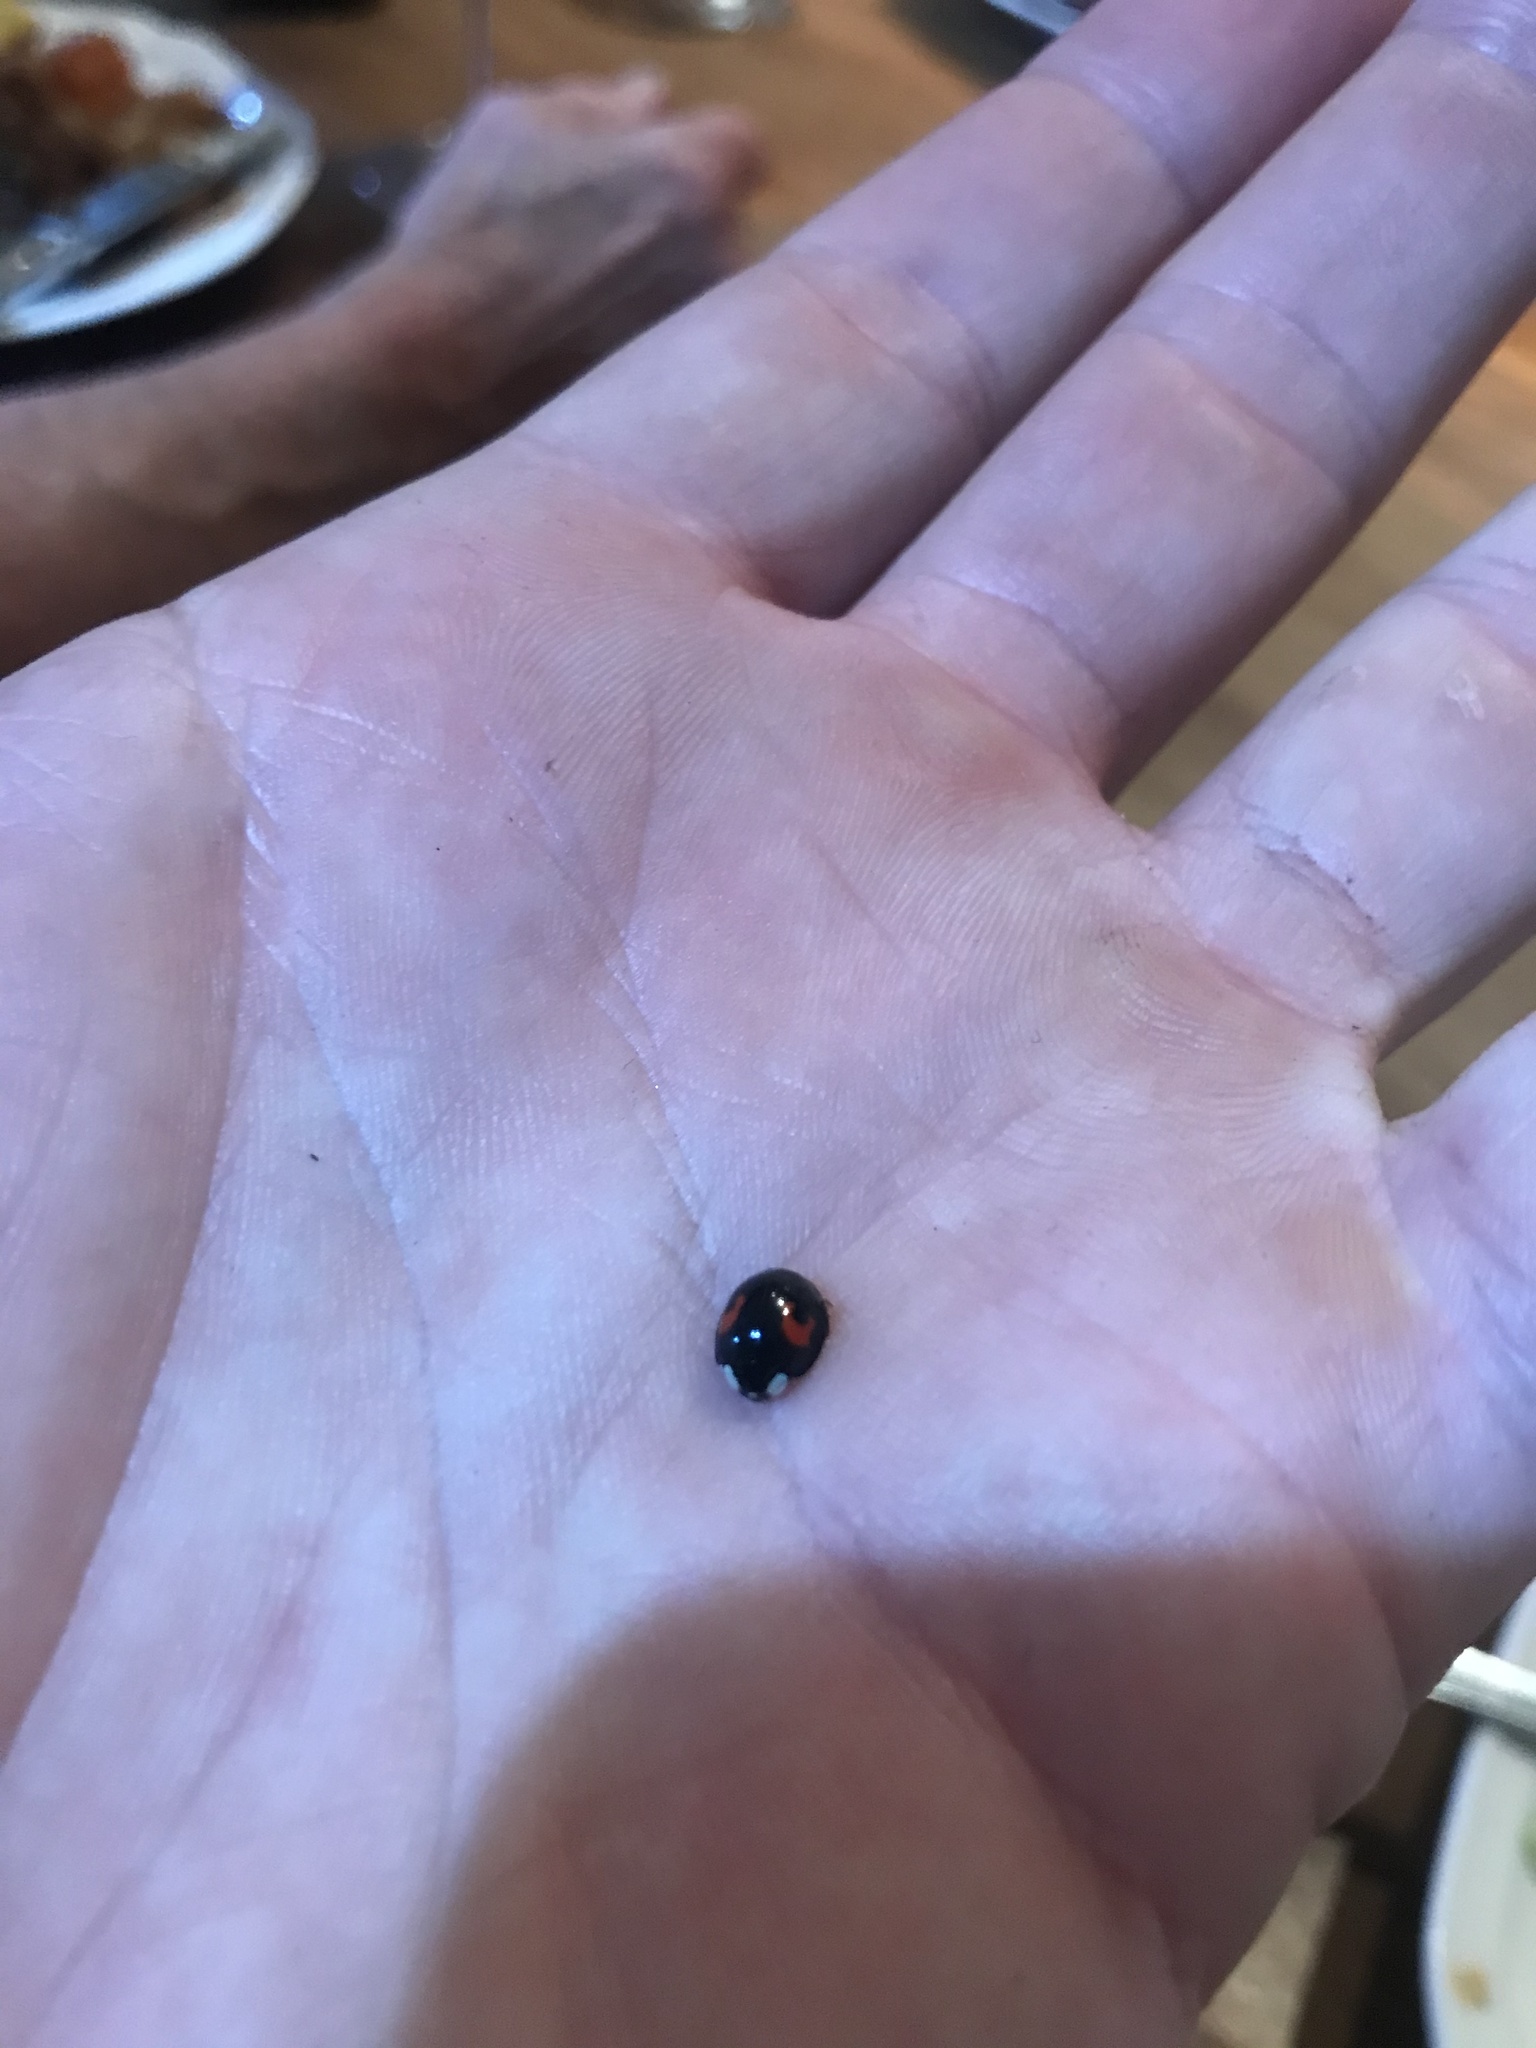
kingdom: Animalia
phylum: Arthropoda
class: Insecta
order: Coleoptera
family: Coccinellidae
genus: Harmonia
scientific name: Harmonia axyridis
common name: Harlequin ladybird
